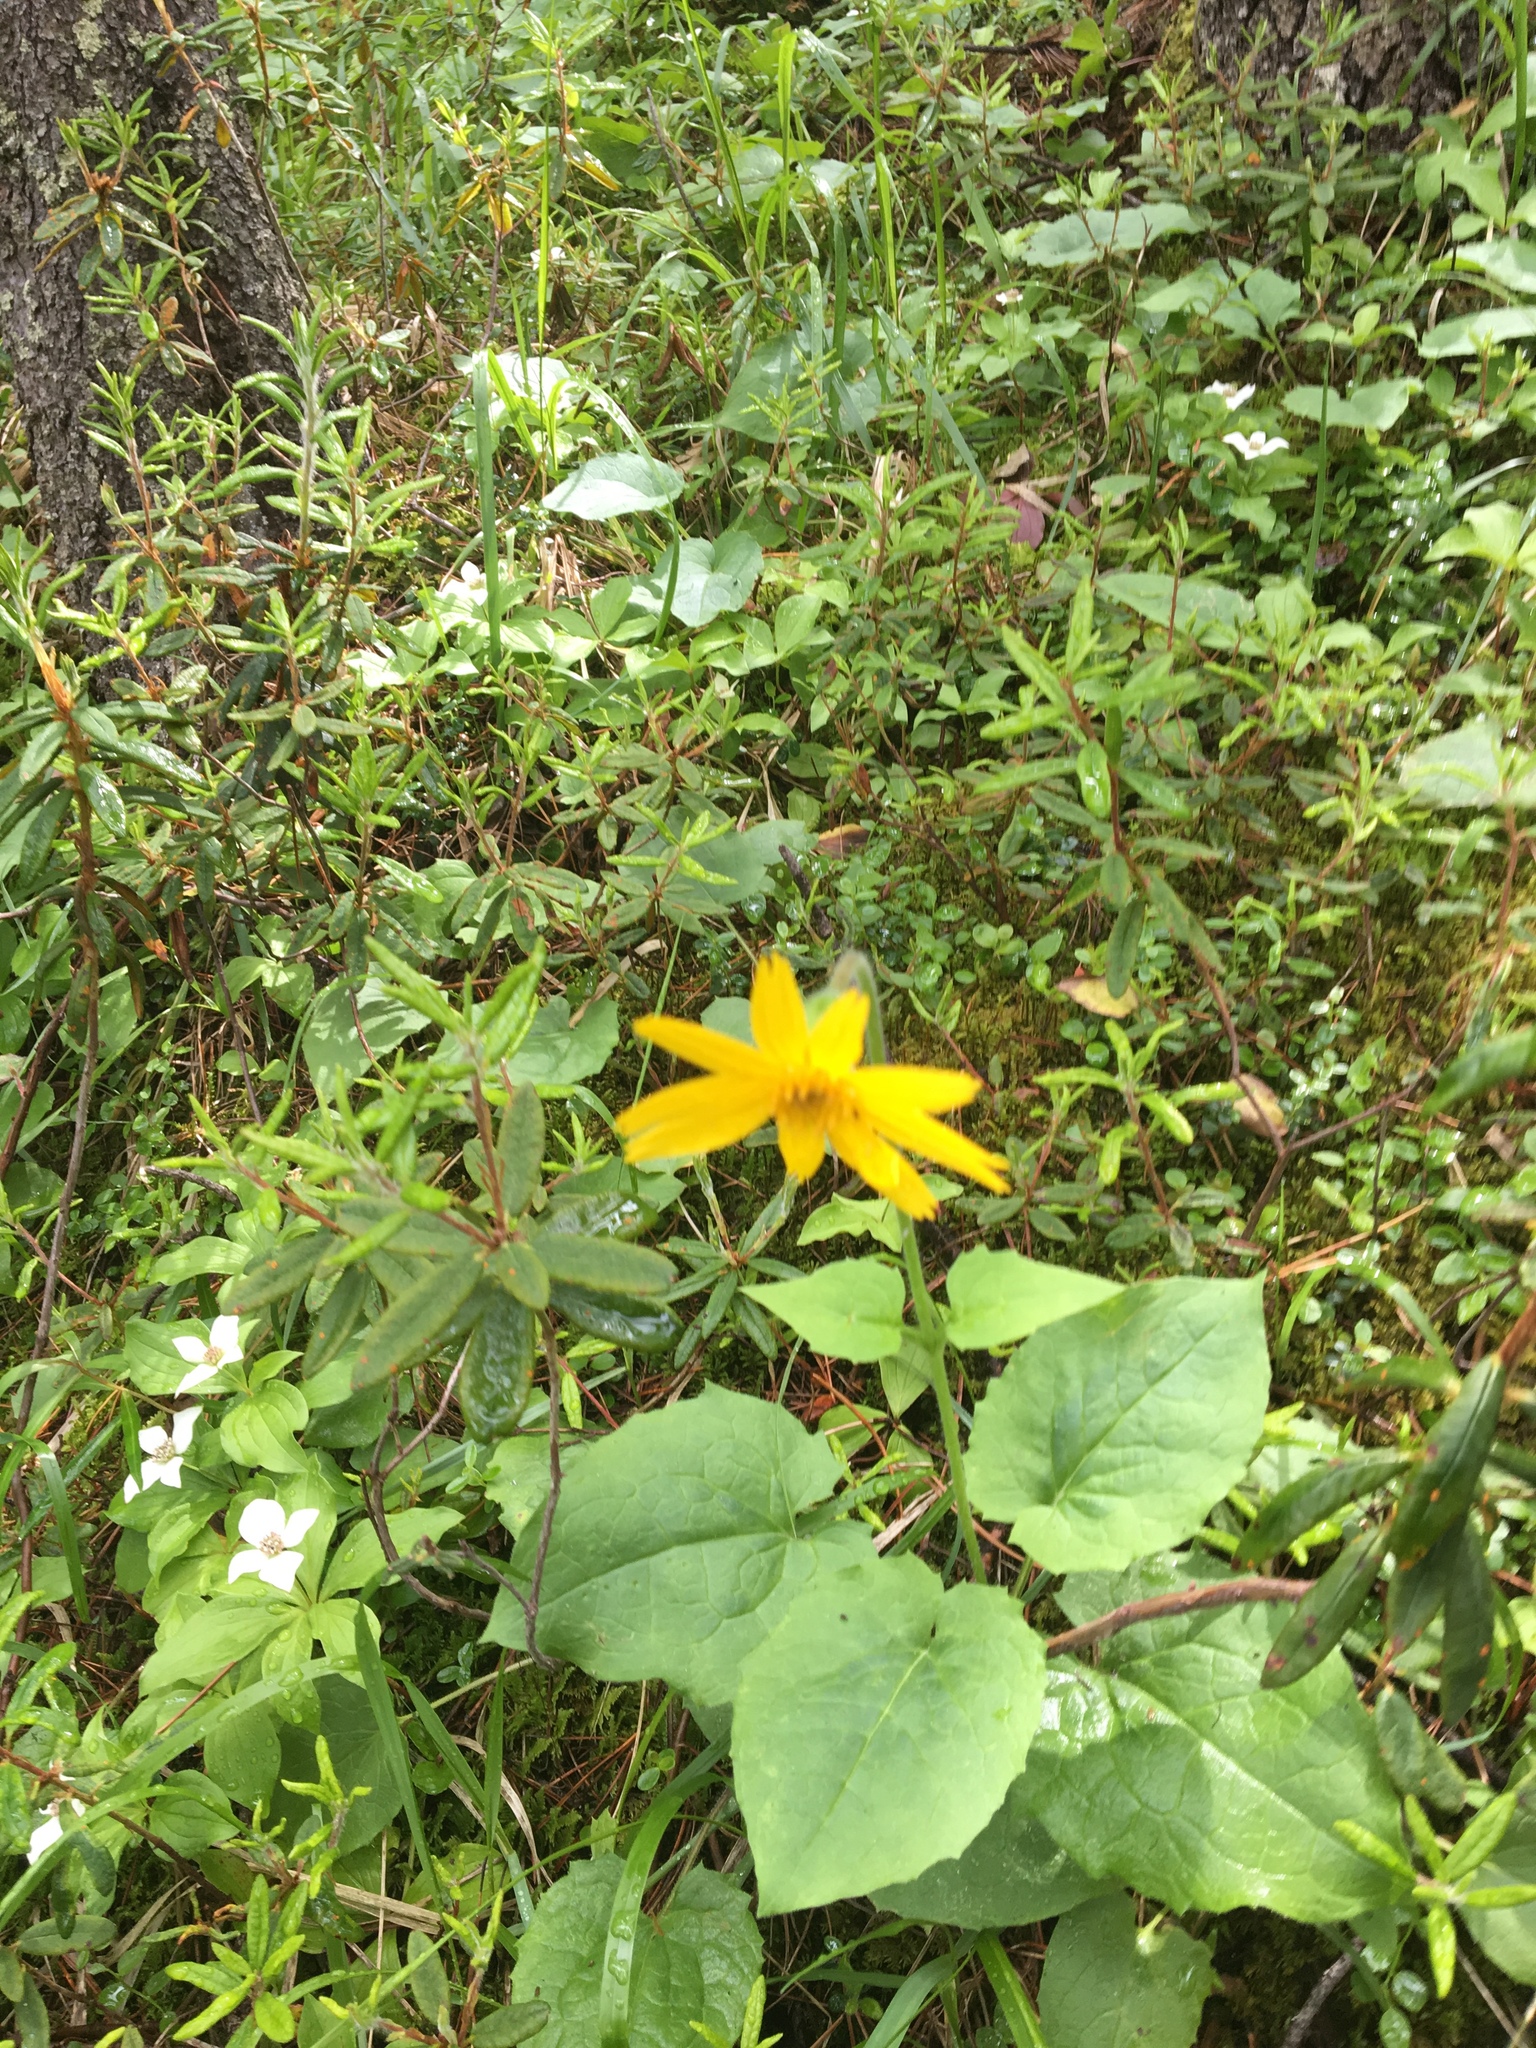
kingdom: Plantae
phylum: Tracheophyta
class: Magnoliopsida
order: Asterales
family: Asteraceae
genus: Arnica
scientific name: Arnica cordifolia
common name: Heart-leaf arnica
